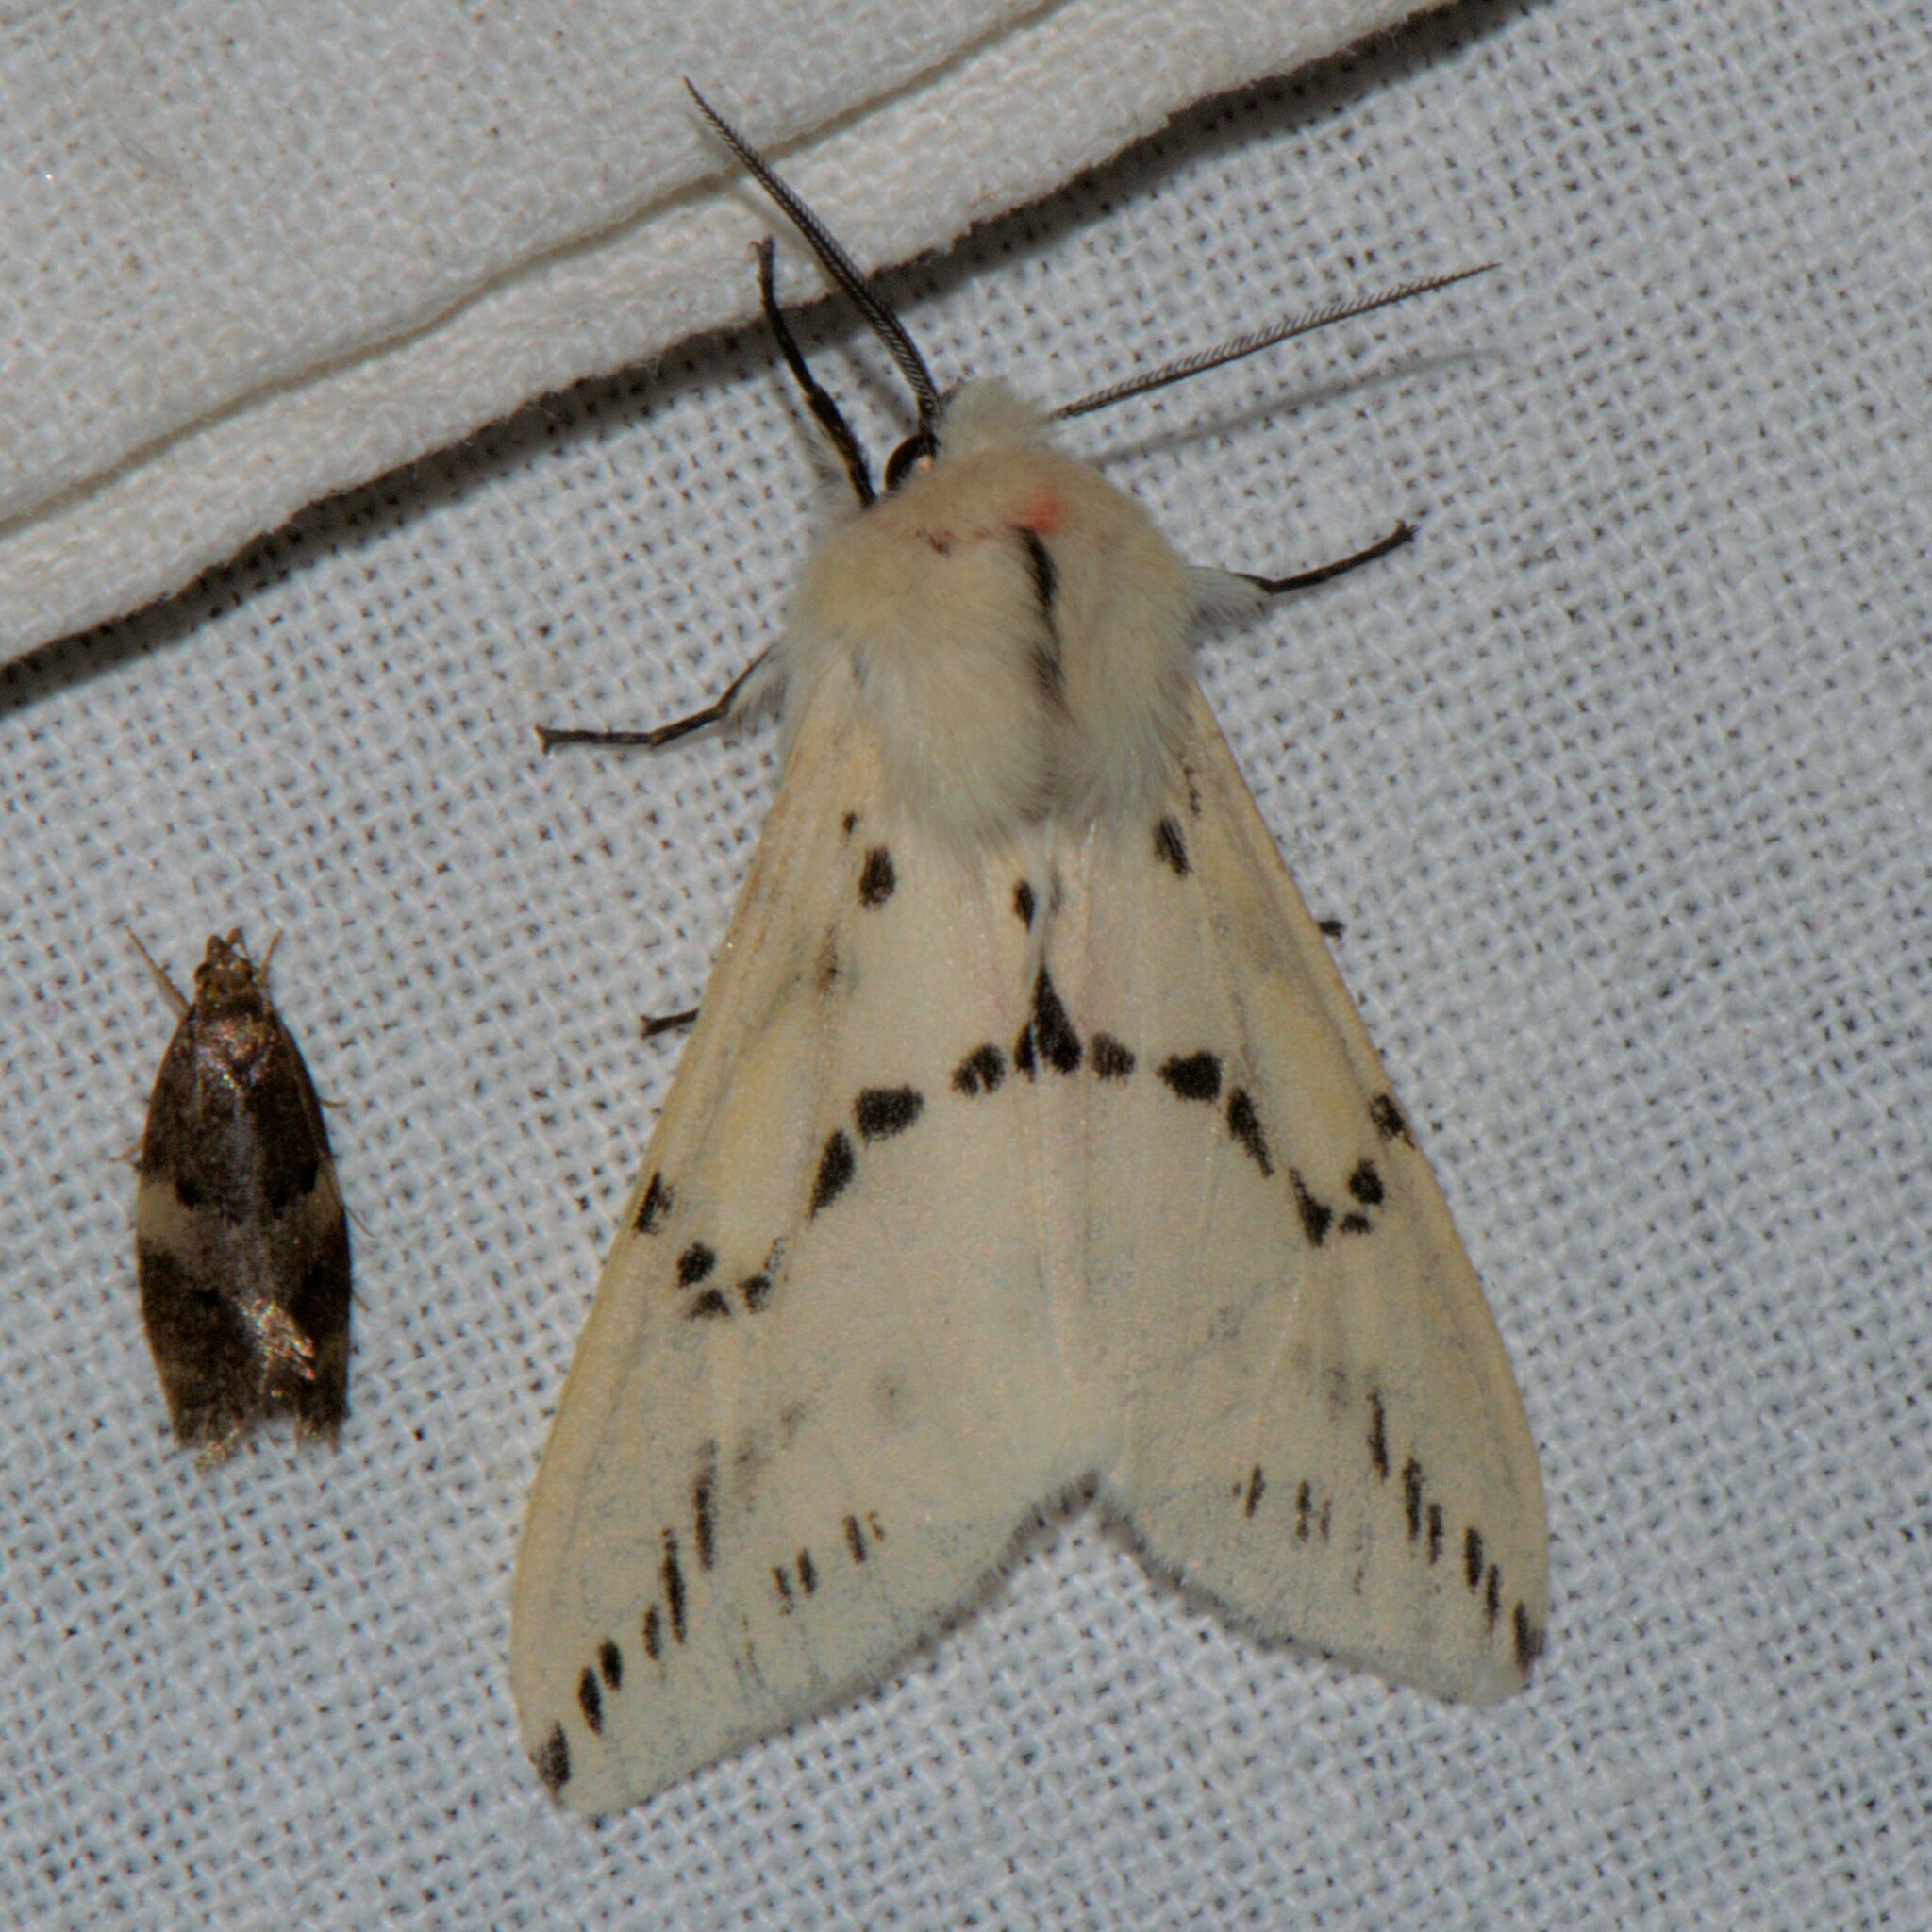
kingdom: Animalia
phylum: Arthropoda
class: Insecta
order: Lepidoptera
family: Erebidae
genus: Lemyra
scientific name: Lemyra stigmata
